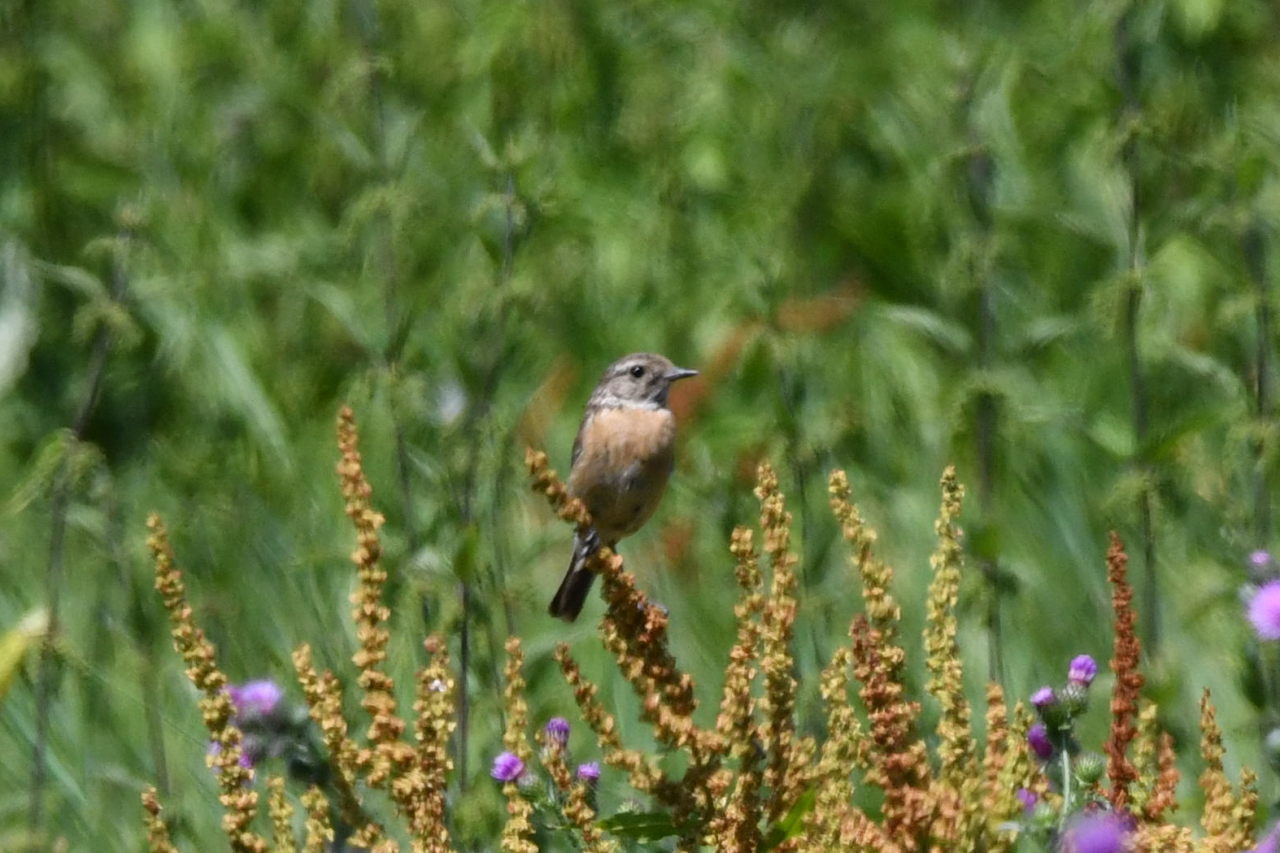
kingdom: Animalia
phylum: Chordata
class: Aves
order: Passeriformes
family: Muscicapidae
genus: Saxicola
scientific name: Saxicola rubicola
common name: European stonechat
